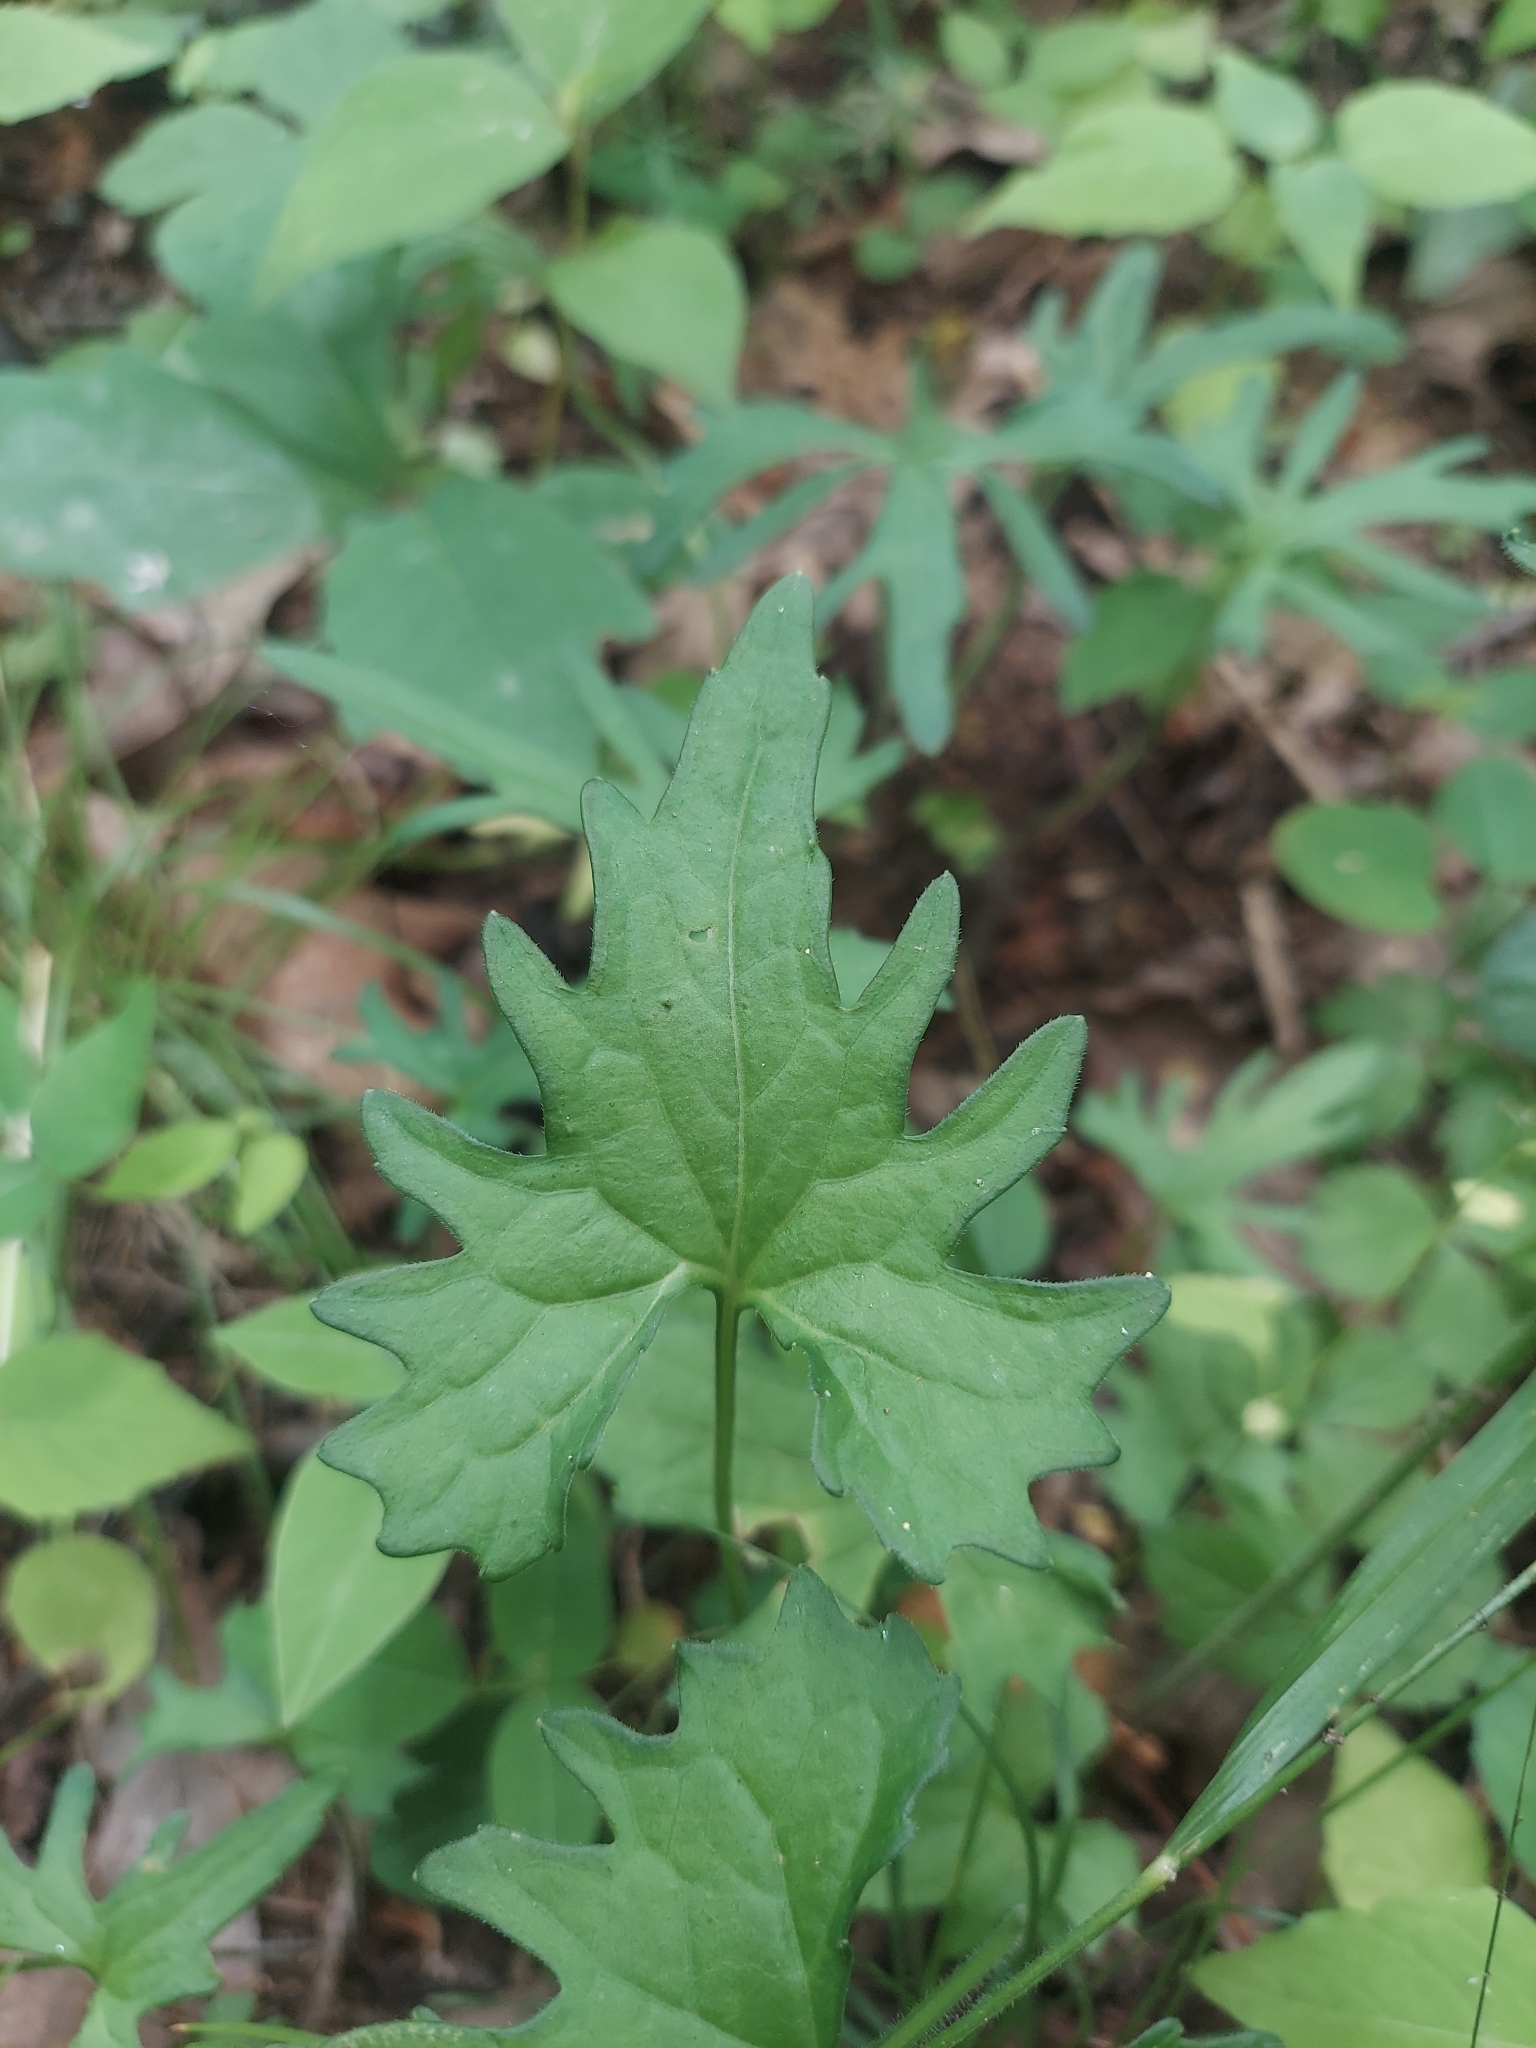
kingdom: Plantae
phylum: Tracheophyta
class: Magnoliopsida
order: Malpighiales
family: Violaceae
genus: Viola
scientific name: Viola subsinuata
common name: Wood violet
